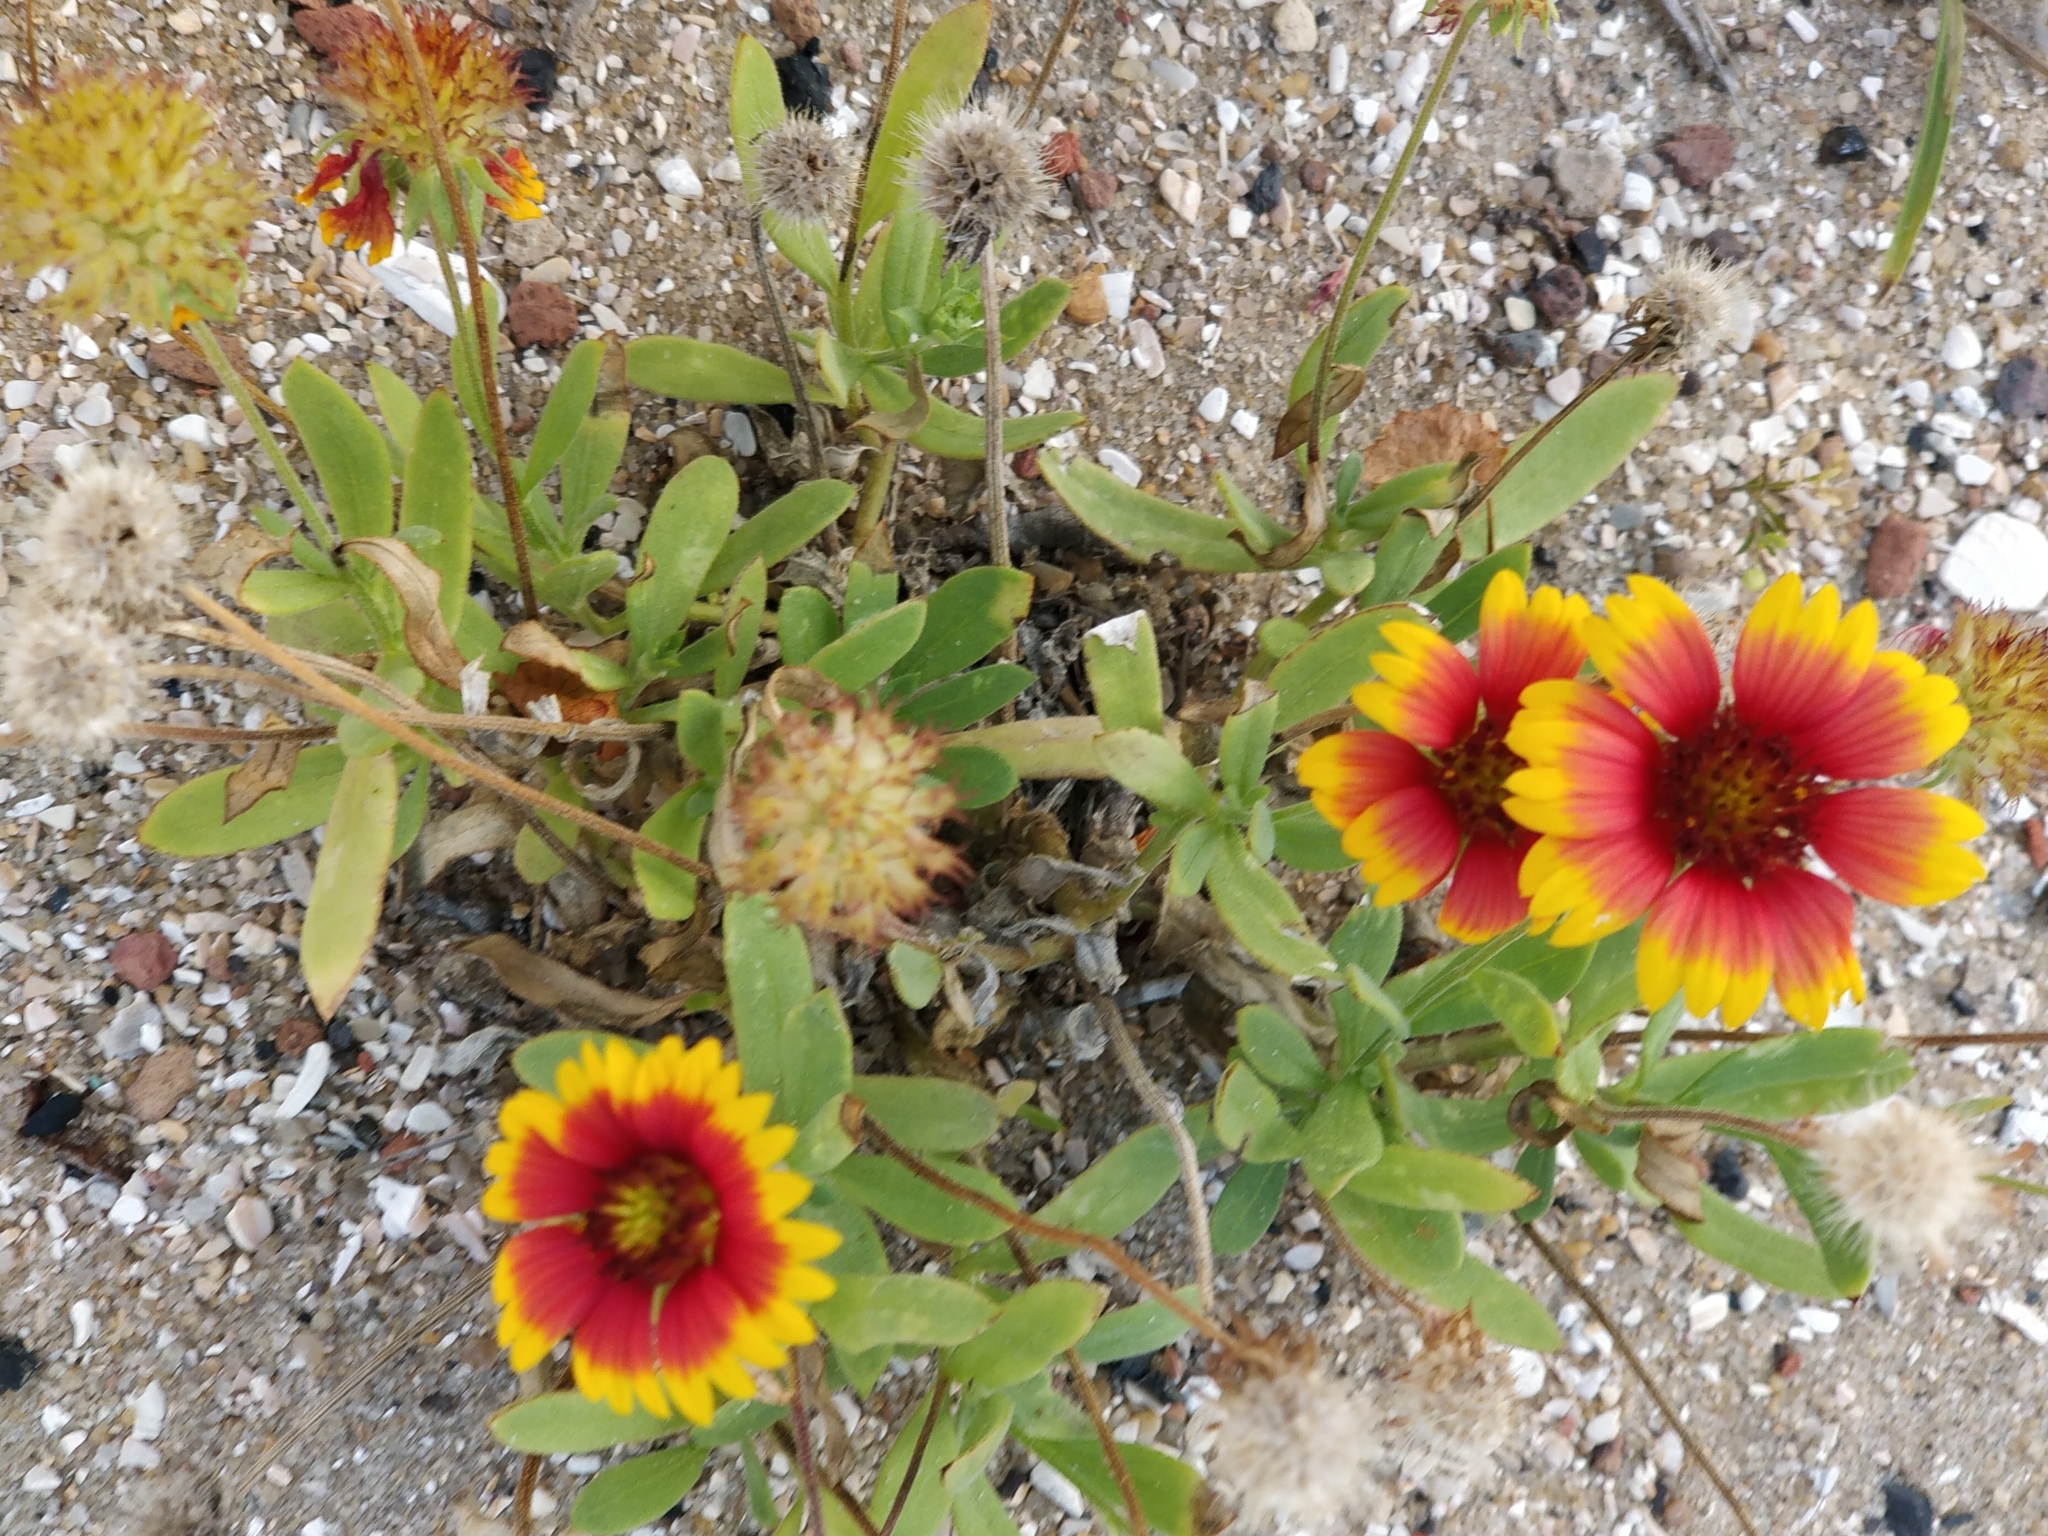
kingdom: Plantae
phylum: Tracheophyta
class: Magnoliopsida
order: Asterales
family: Asteraceae
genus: Gaillardia
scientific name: Gaillardia pulchella
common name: Firewheel
